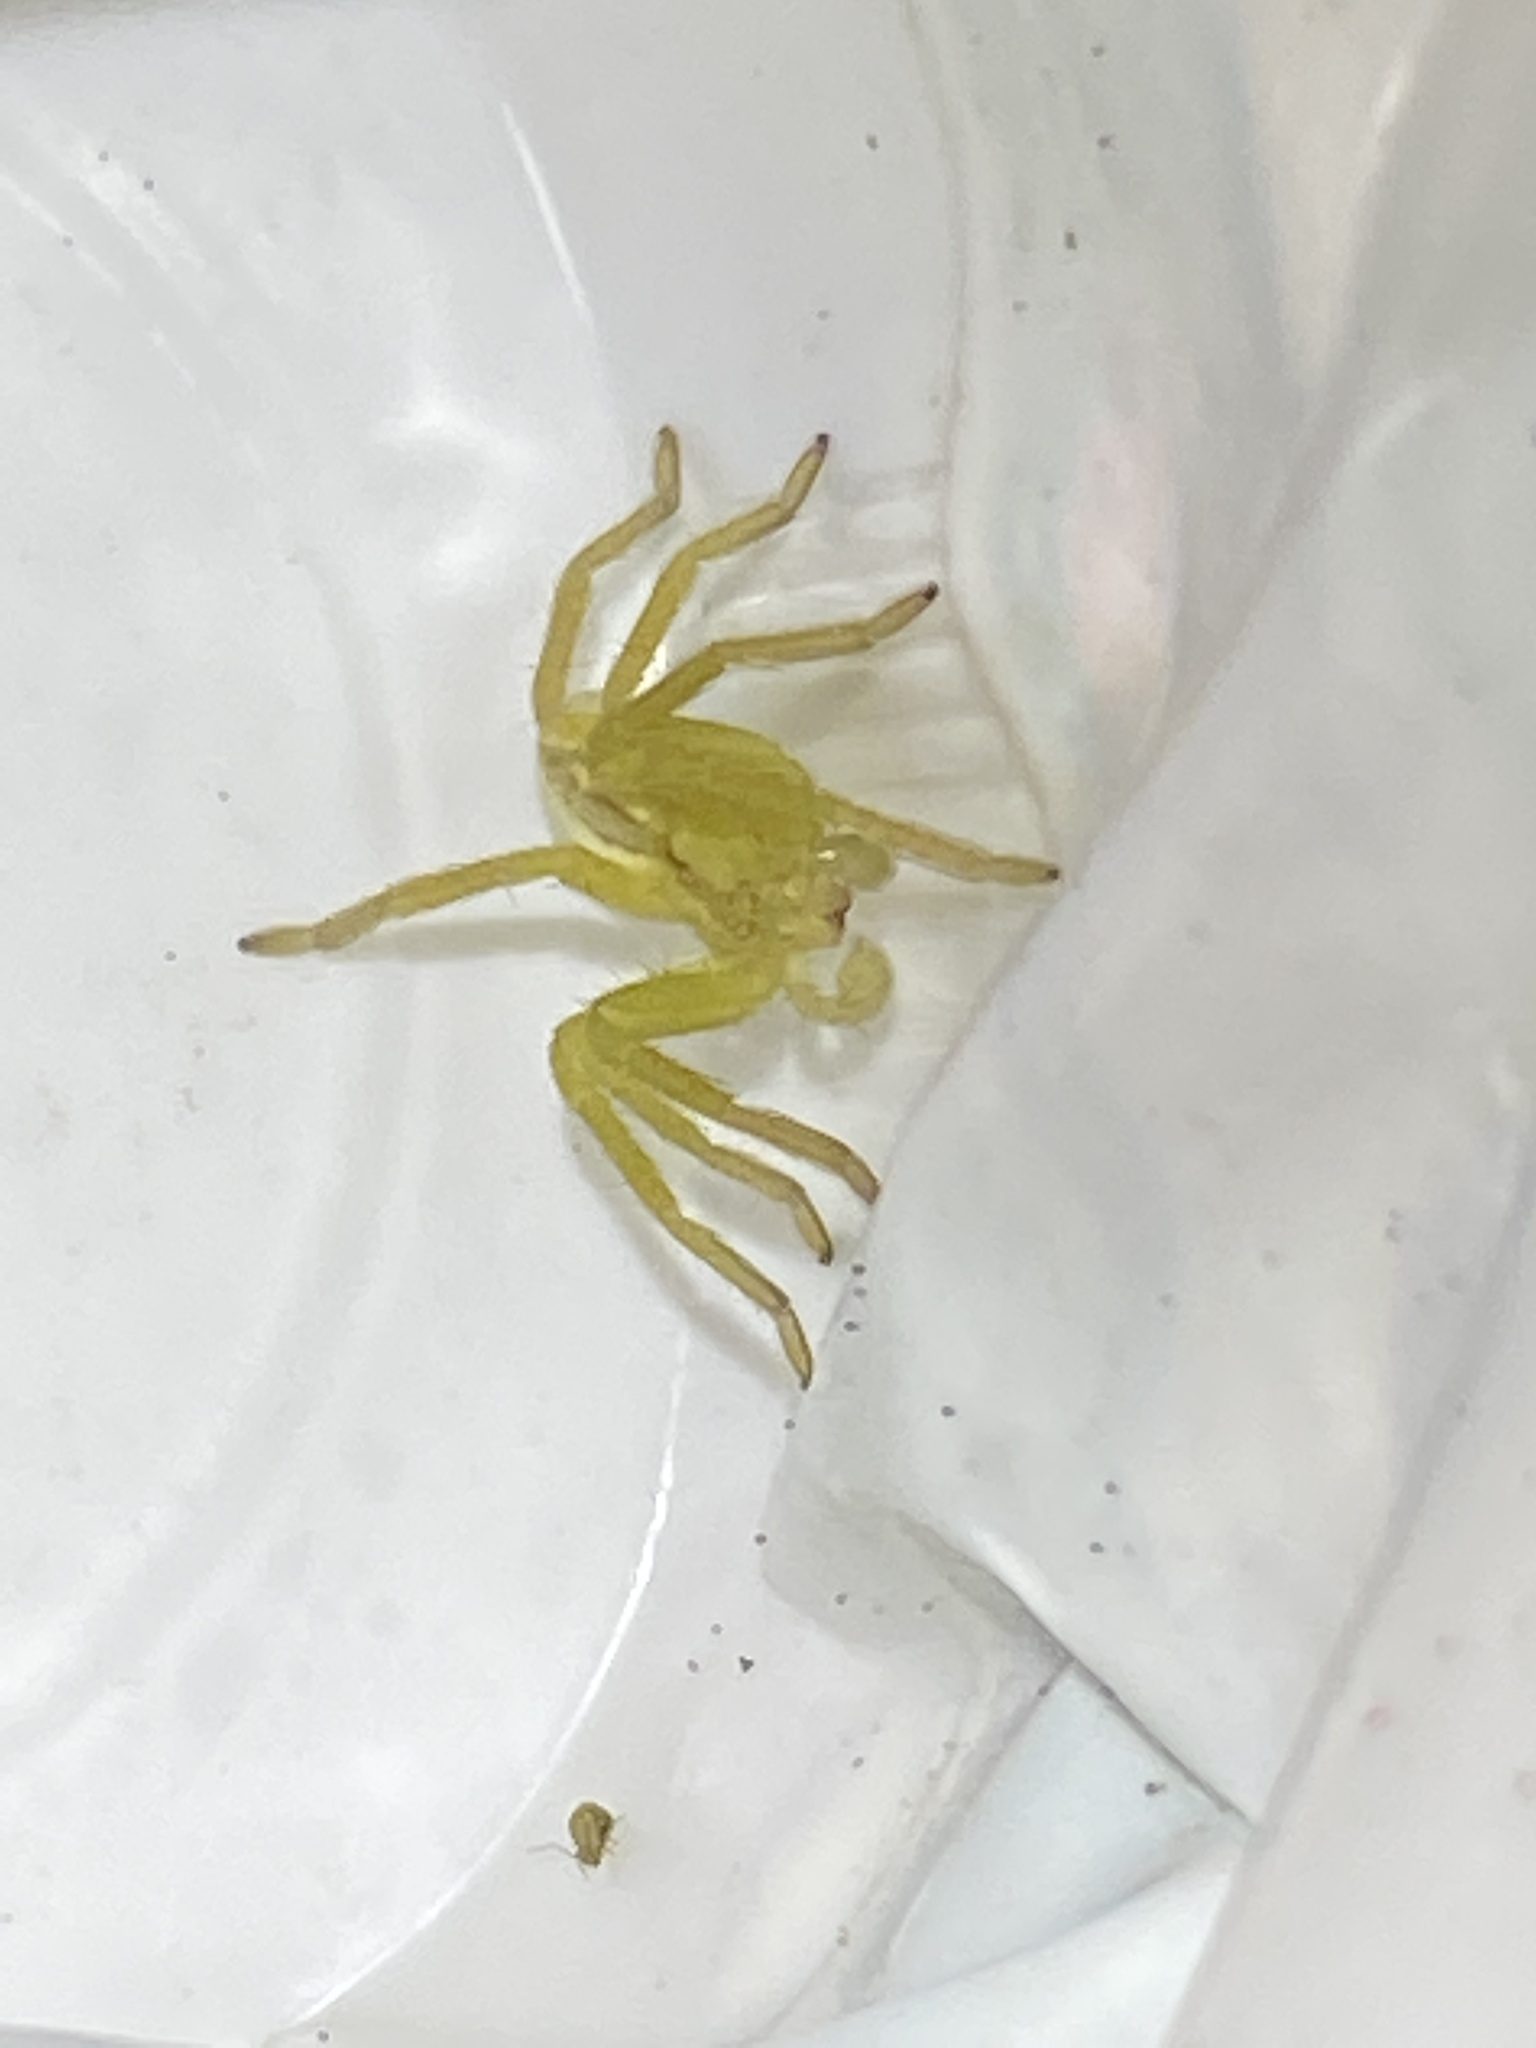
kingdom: Animalia
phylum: Arthropoda
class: Arachnida
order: Araneae
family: Sparassidae
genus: Micrommata
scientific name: Micrommata virescens
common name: Green spider
